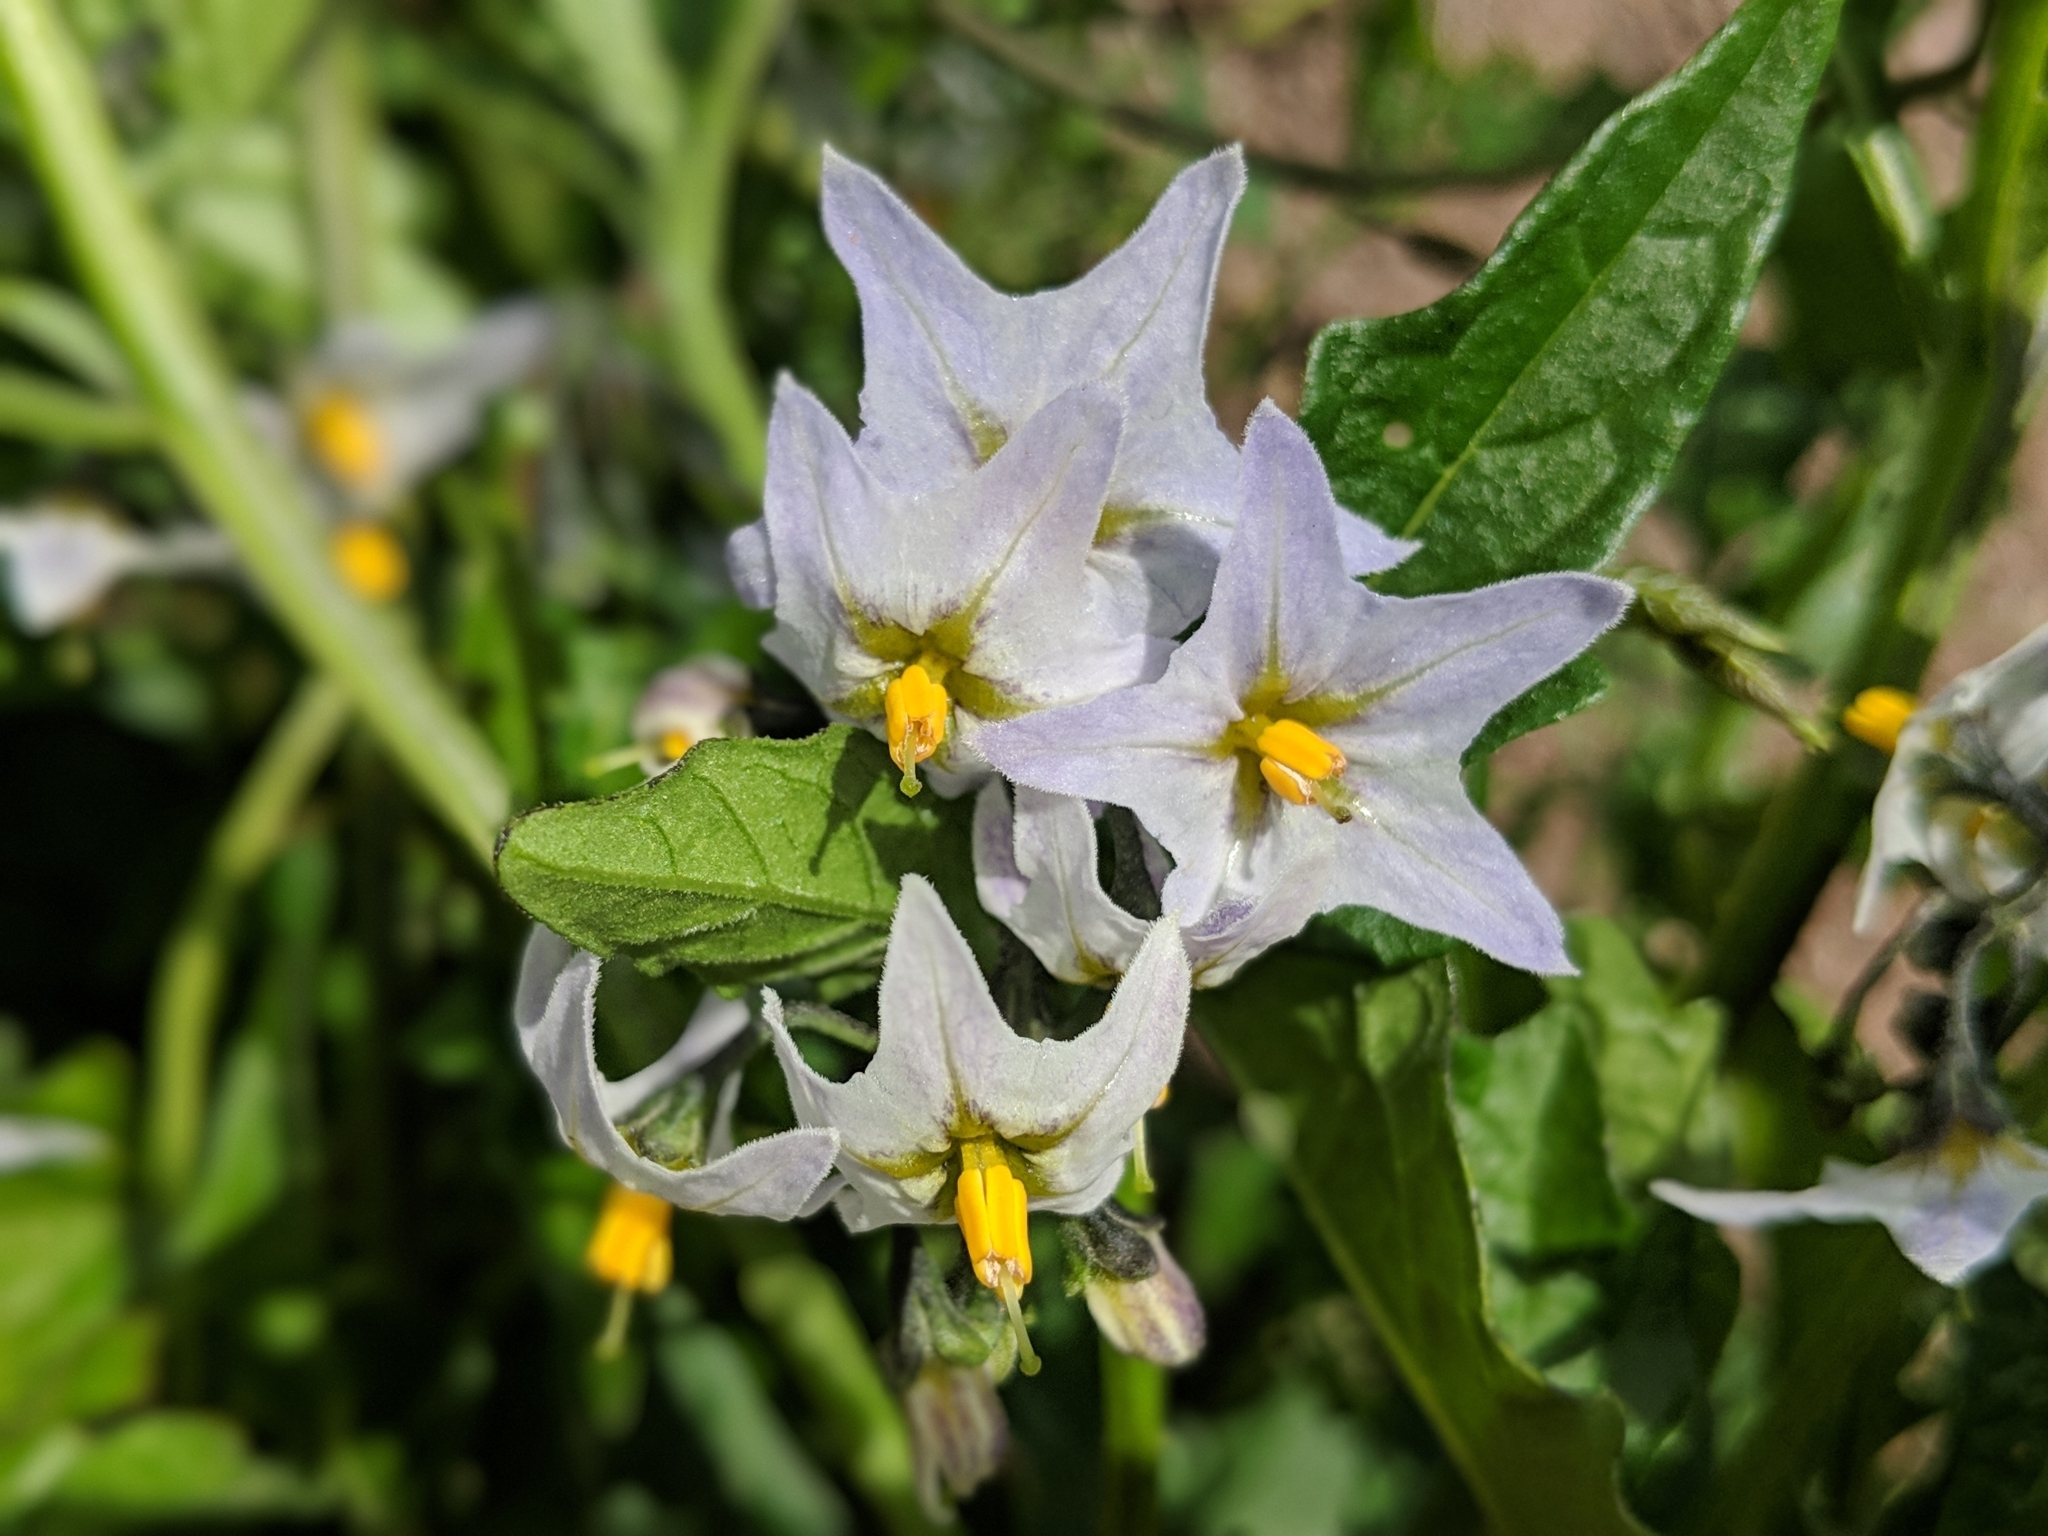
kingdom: Plantae
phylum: Tracheophyta
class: Magnoliopsida
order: Solanales
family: Solanaceae
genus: Solanum
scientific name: Solanum furcatum
